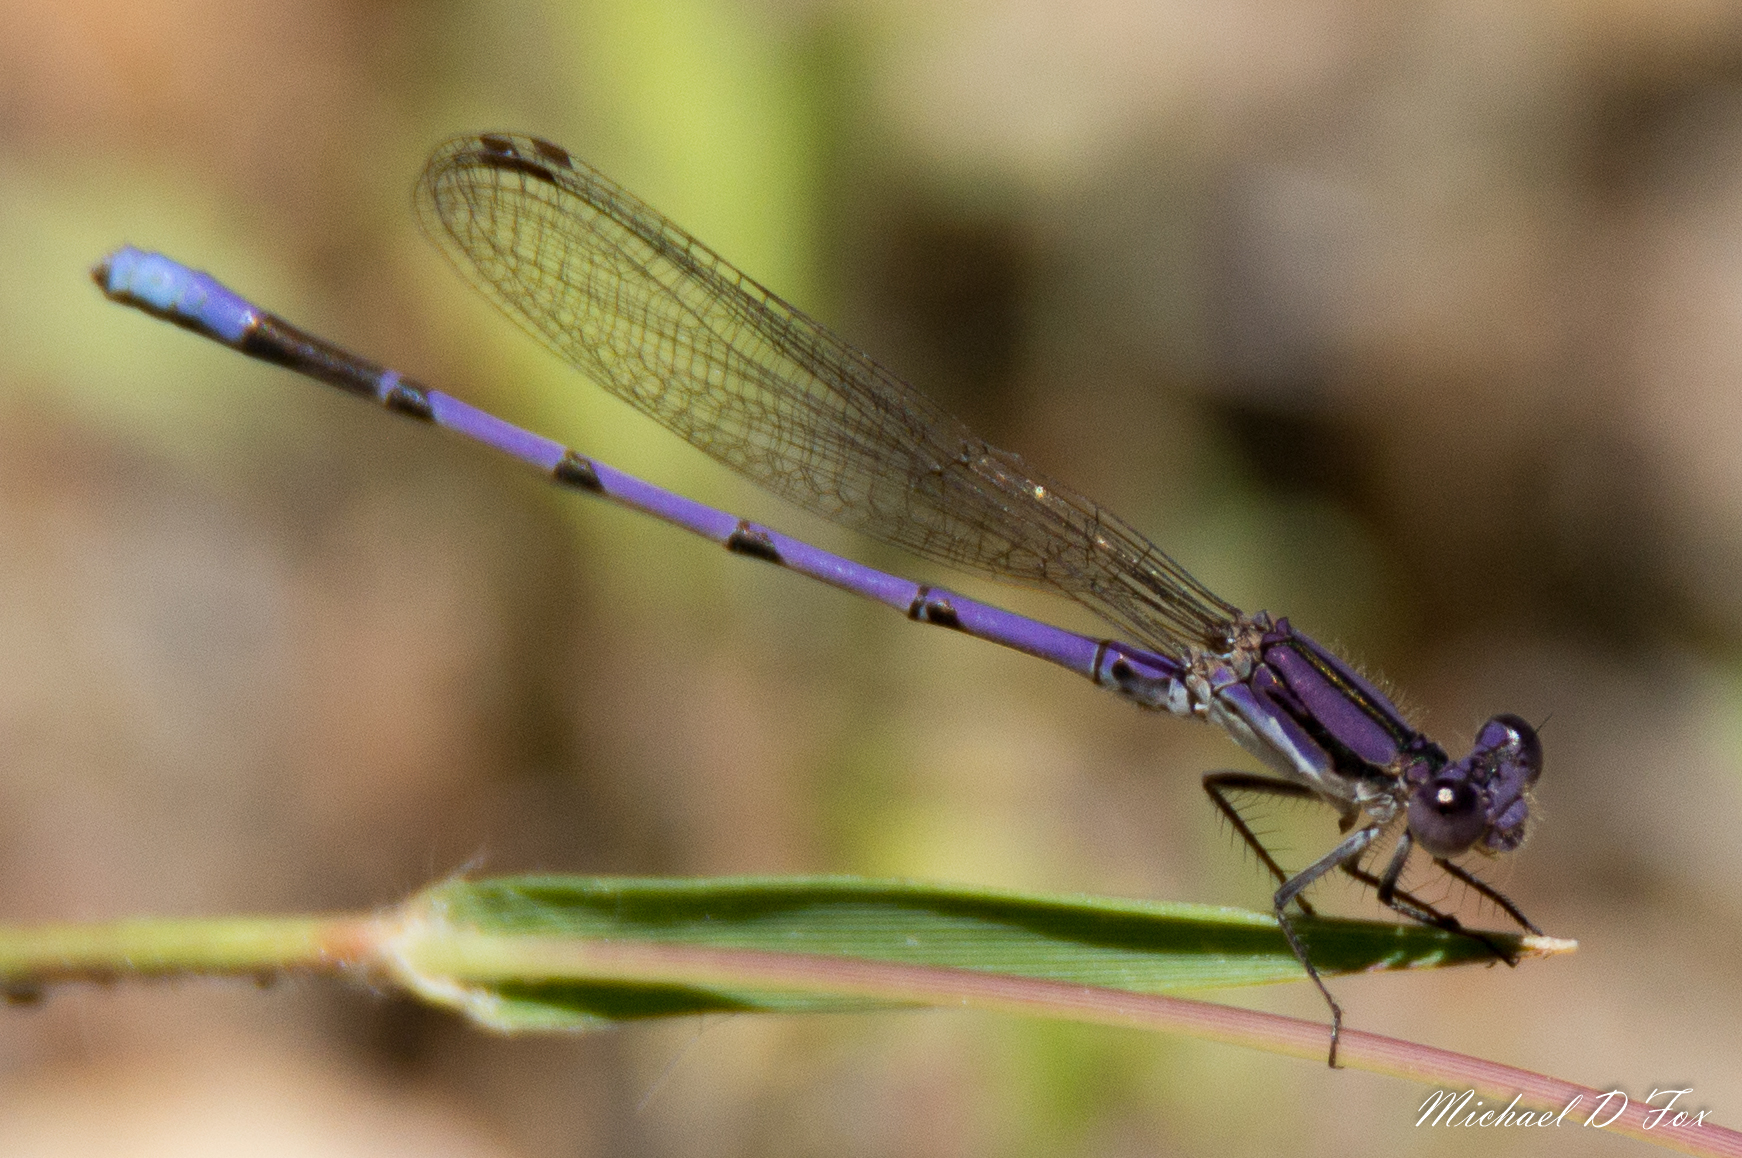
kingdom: Animalia
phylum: Arthropoda
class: Insecta
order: Odonata
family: Coenagrionidae
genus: Argia
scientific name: Argia fumipennis
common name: Variable dancer
